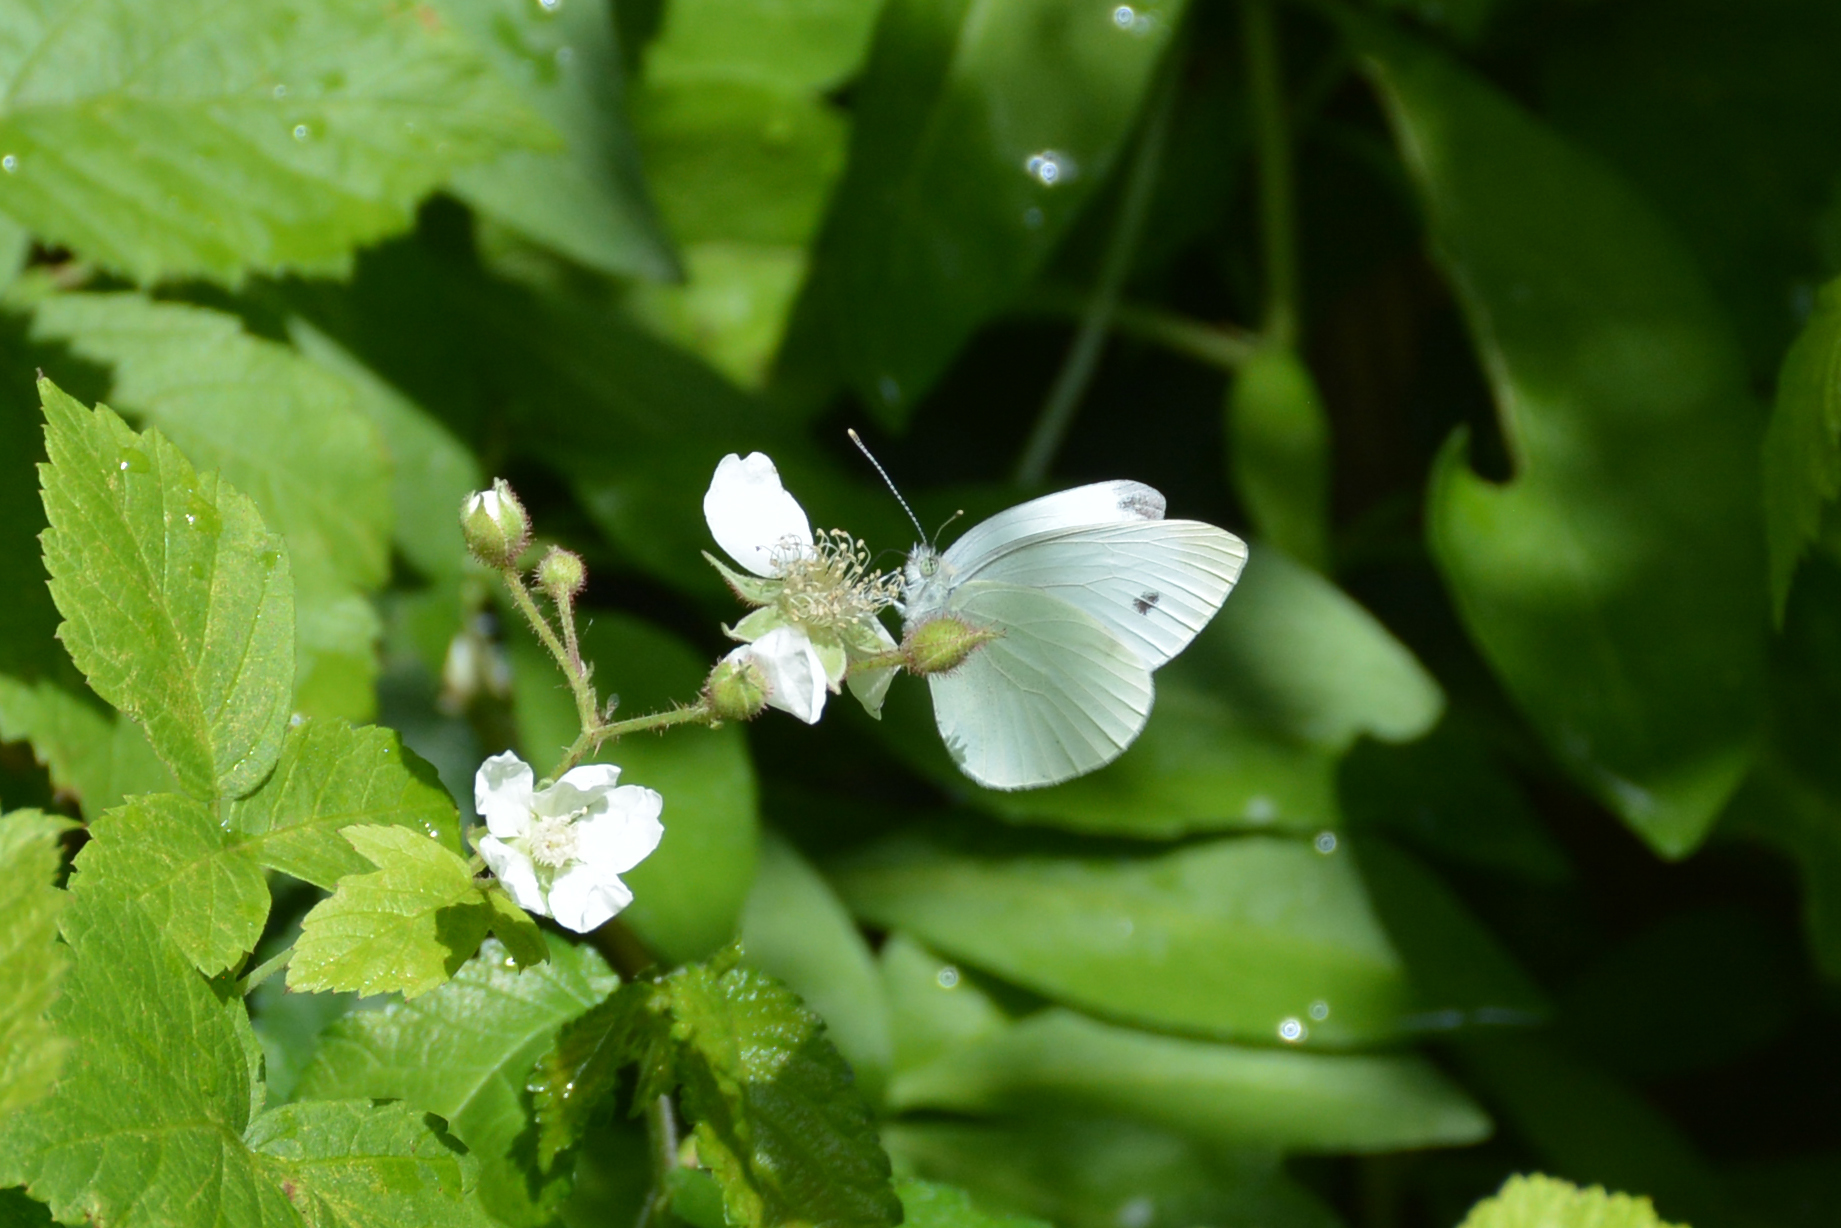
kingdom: Animalia
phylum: Arthropoda
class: Insecta
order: Lepidoptera
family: Pieridae
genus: Pieris
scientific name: Pieris rapae
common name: Small white
